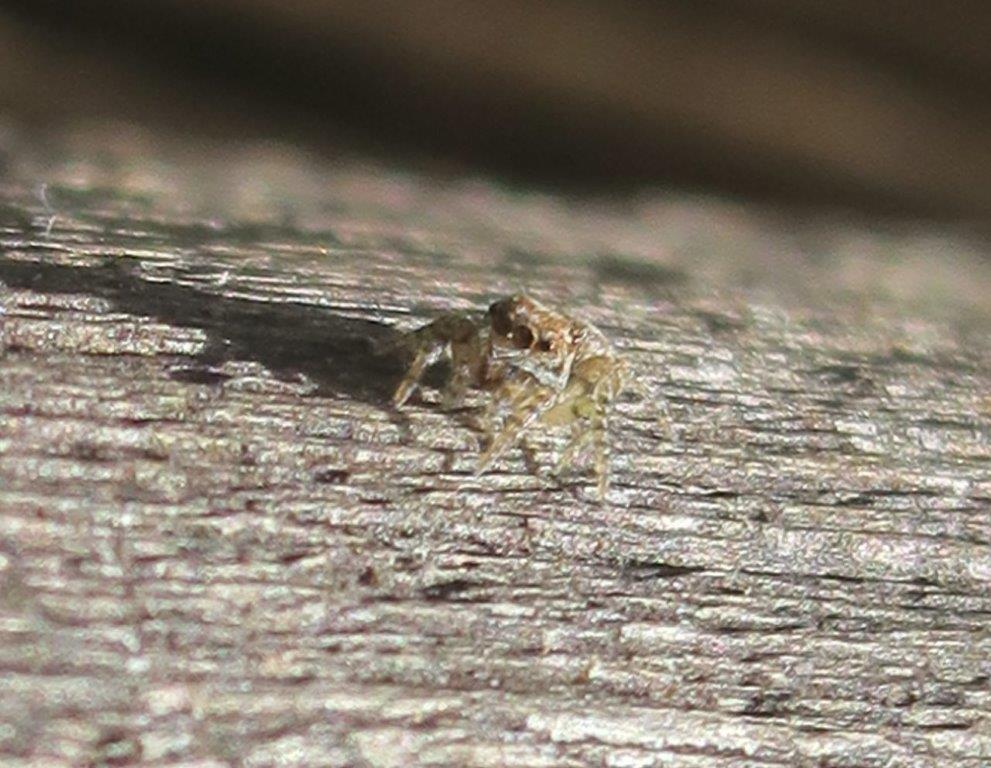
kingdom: Animalia
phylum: Arthropoda
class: Arachnida
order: Araneae
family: Salticidae
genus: Menemerus
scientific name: Menemerus bivittatus
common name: Gray wall jumper
